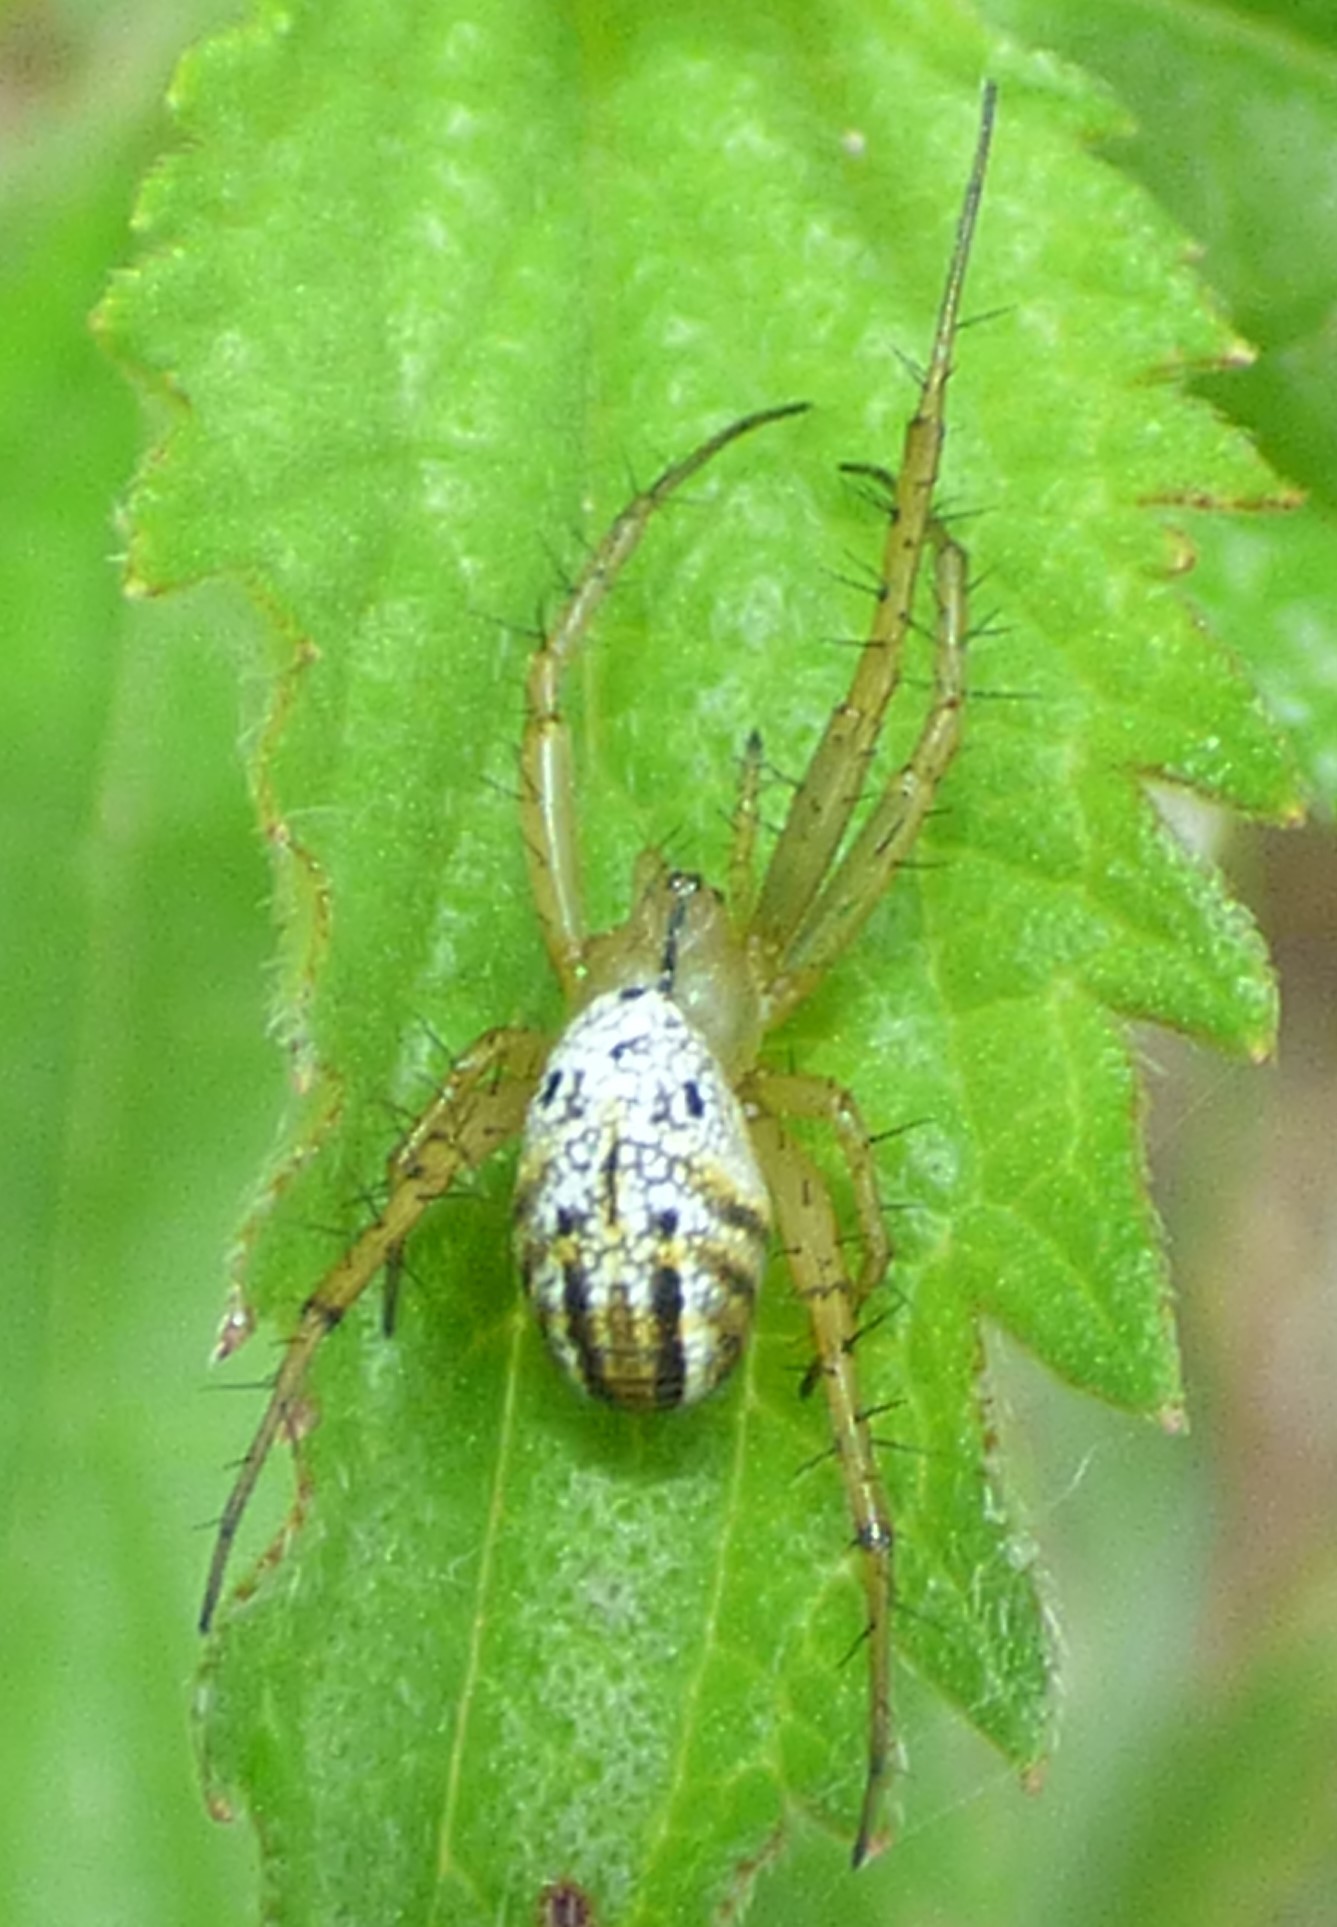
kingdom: Animalia
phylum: Arthropoda
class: Arachnida
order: Araneae
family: Araneidae
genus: Mangora
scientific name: Mangora gibberosa
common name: Lined orbweaver
